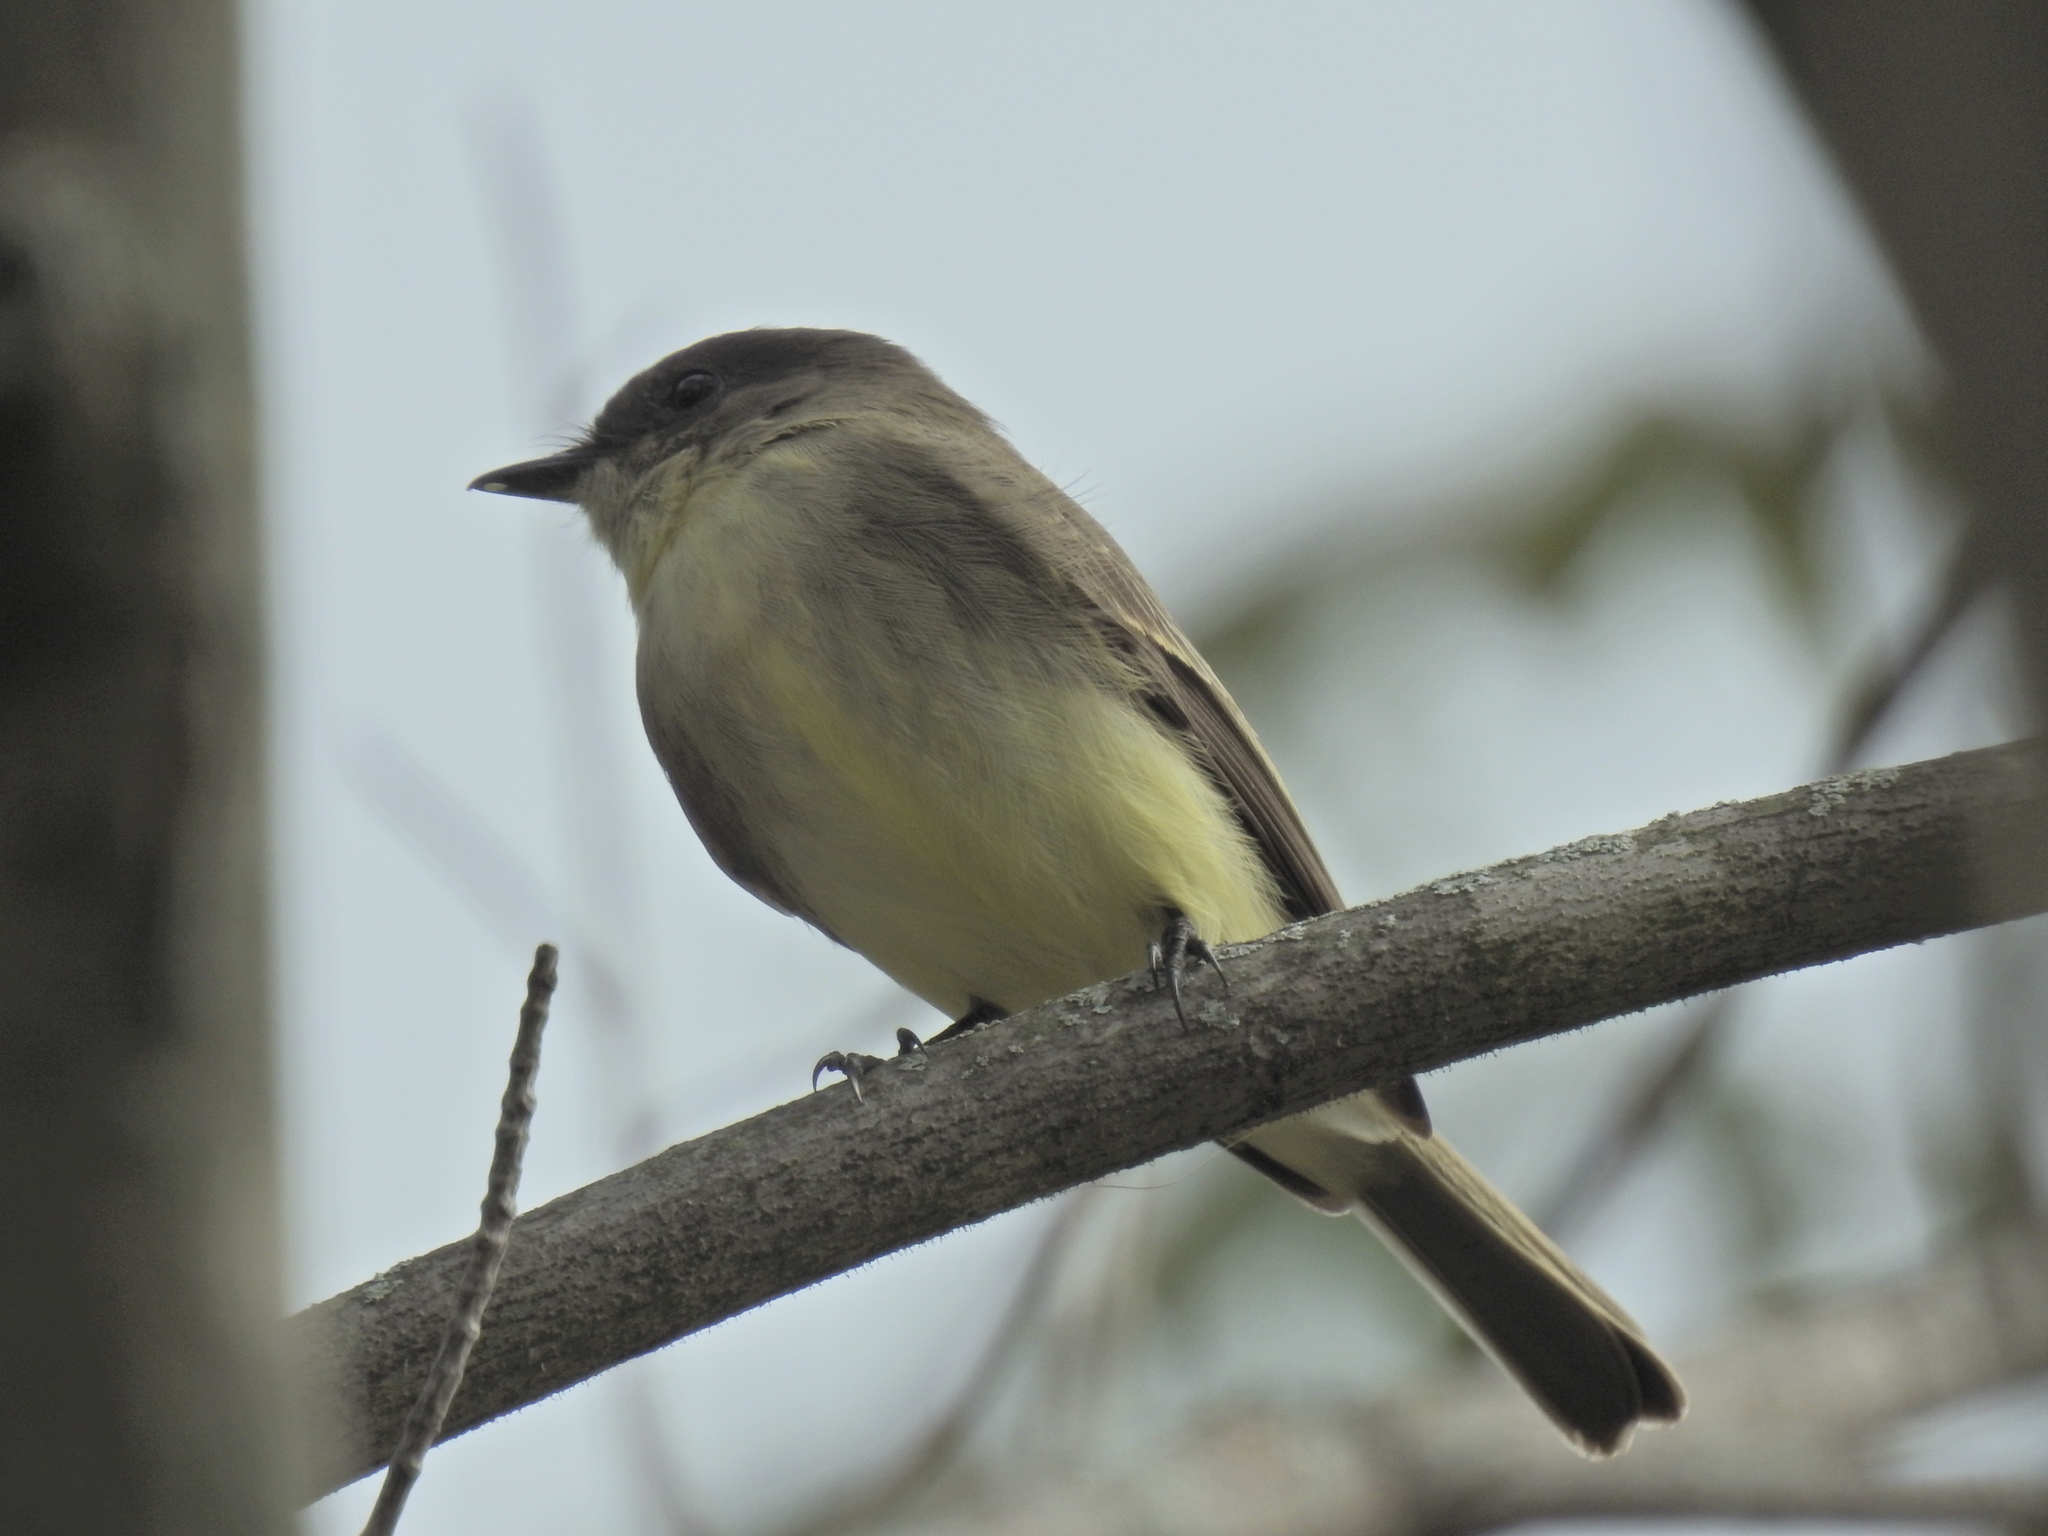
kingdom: Animalia
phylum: Chordata
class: Aves
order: Passeriformes
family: Tyrannidae
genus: Sayornis
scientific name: Sayornis phoebe
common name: Eastern phoebe
